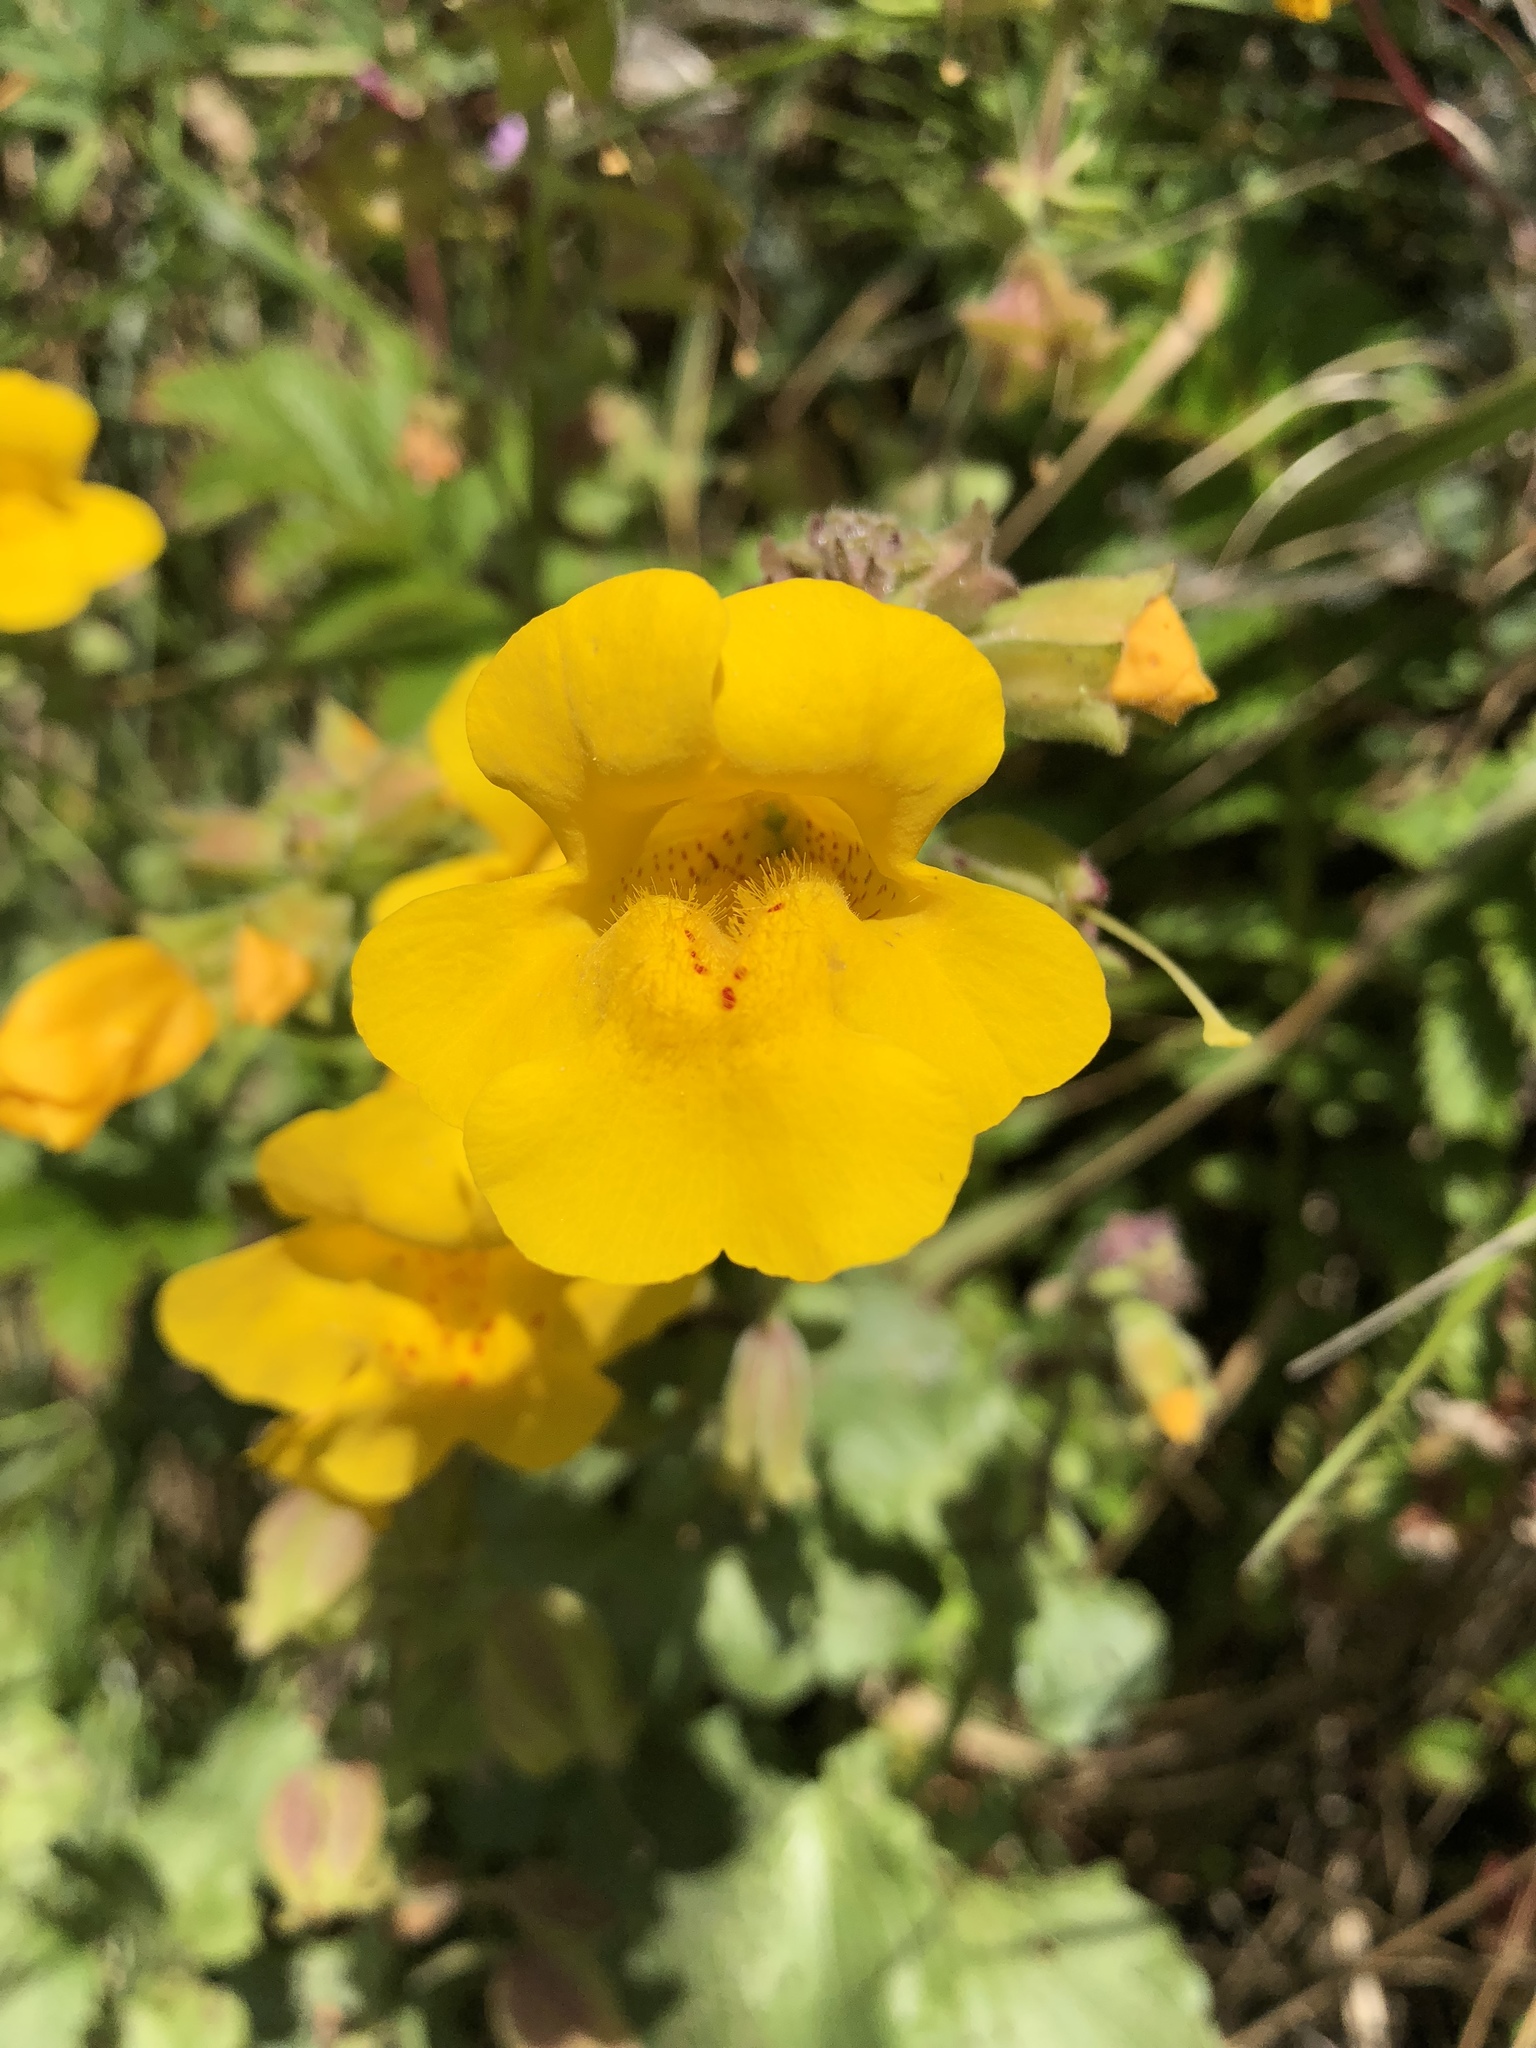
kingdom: Plantae
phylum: Tracheophyta
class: Magnoliopsida
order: Lamiales
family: Phrymaceae
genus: Erythranthe
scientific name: Erythranthe grandis
